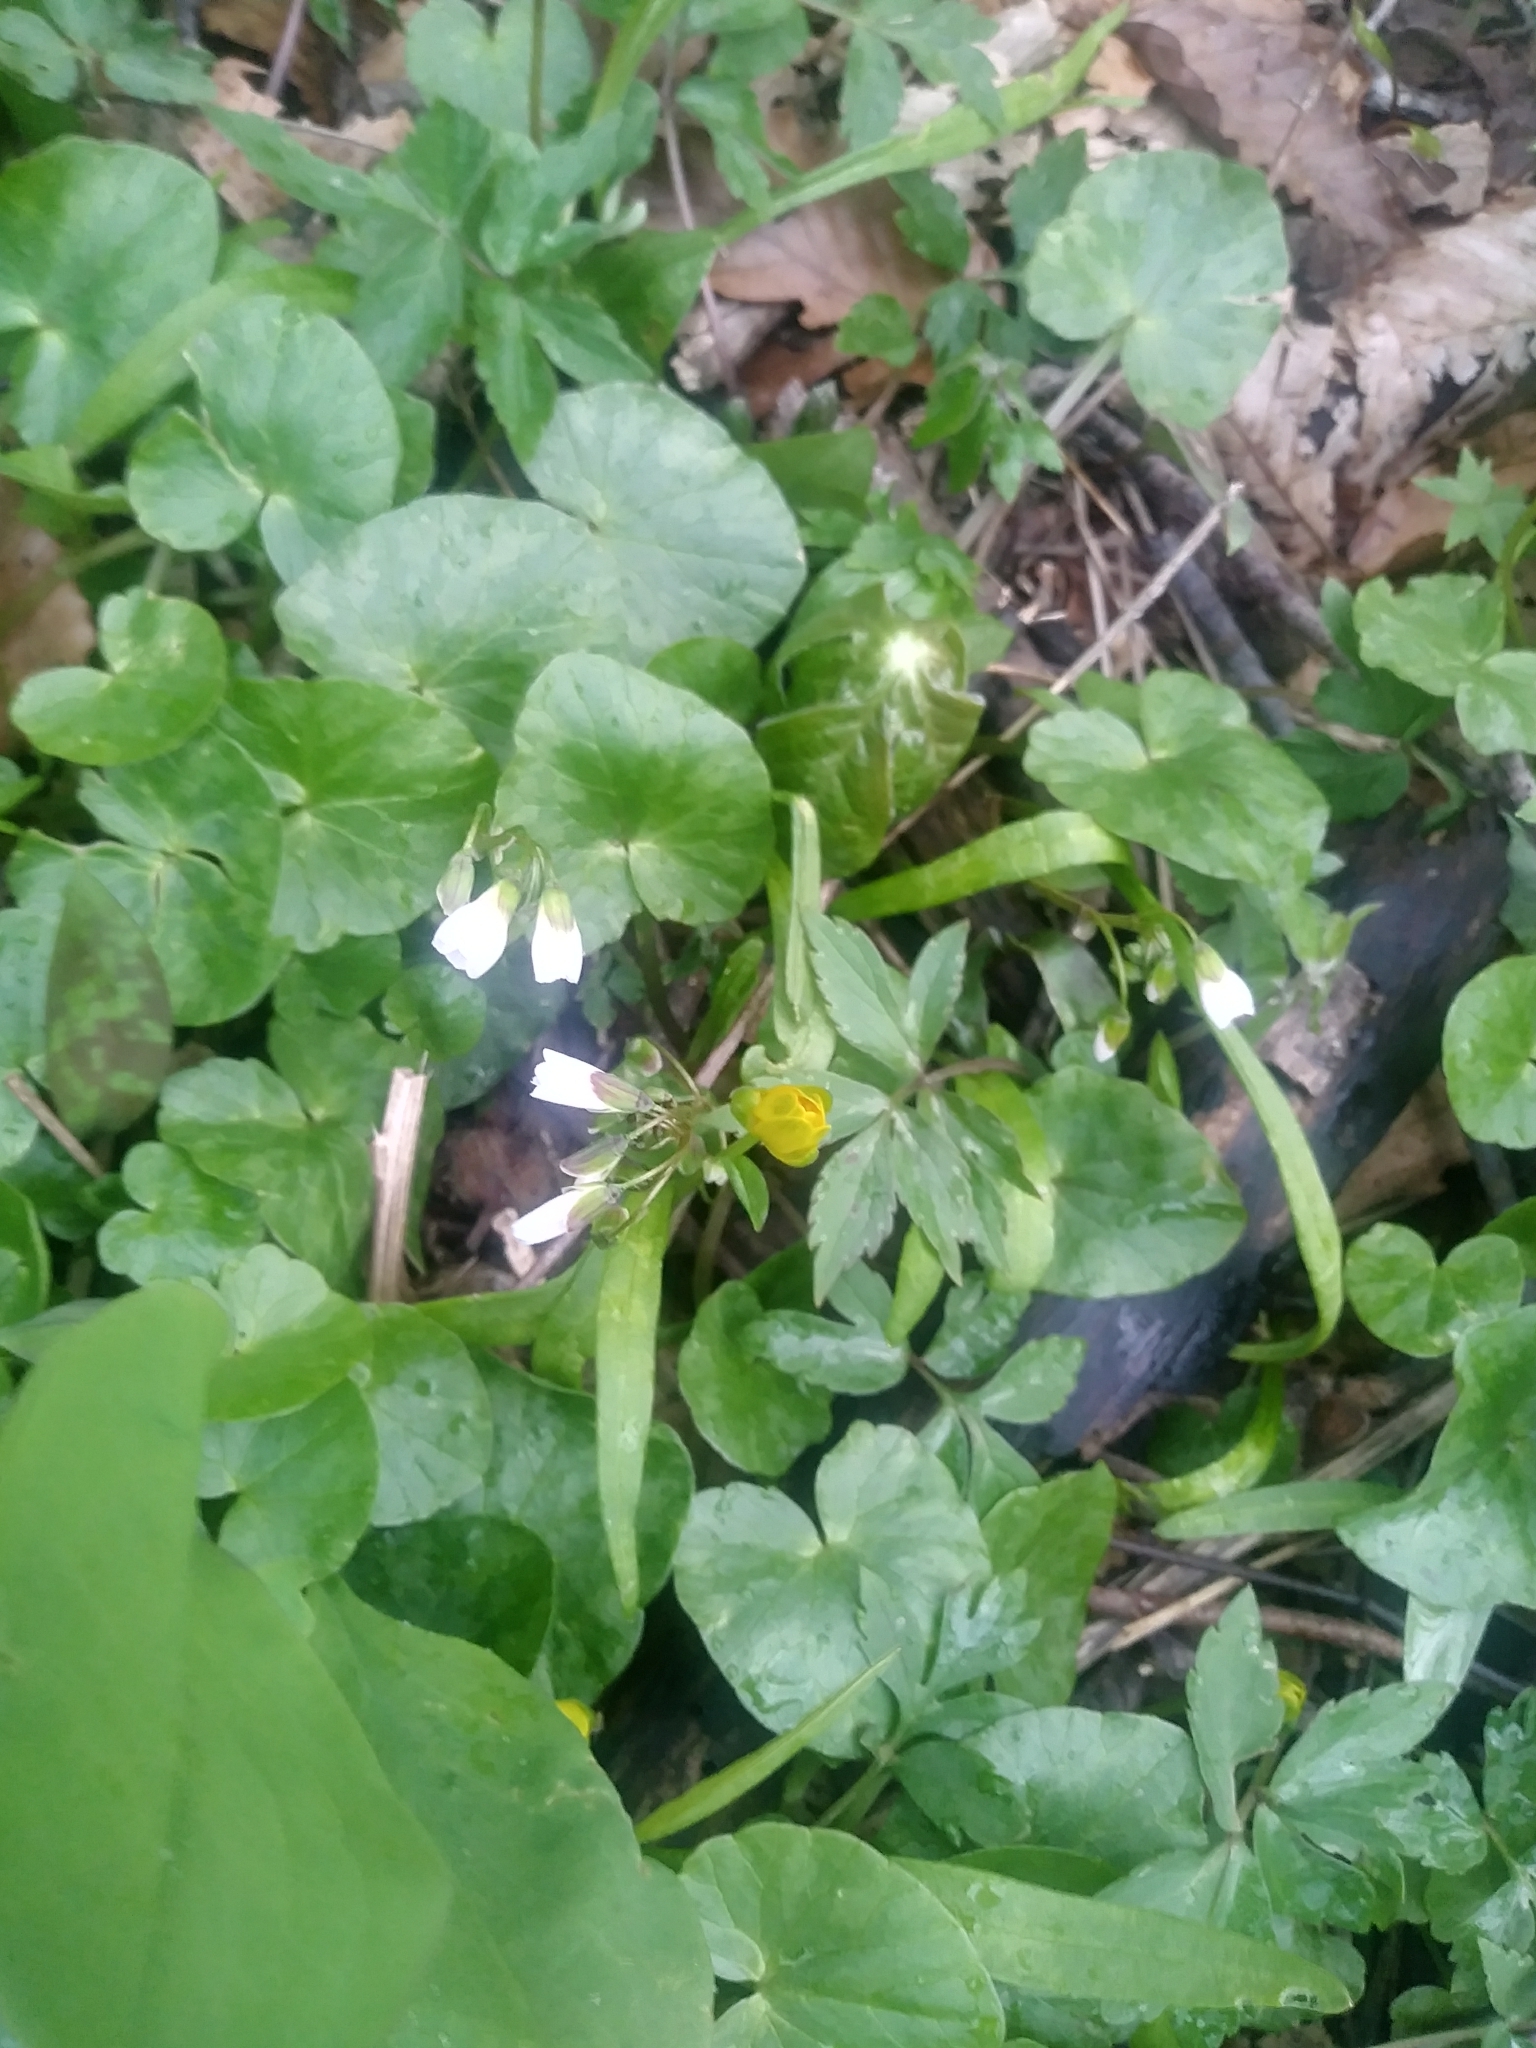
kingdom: Plantae
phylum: Tracheophyta
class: Magnoliopsida
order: Caryophyllales
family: Montiaceae
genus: Claytonia
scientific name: Claytonia virginica
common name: Virginia springbeauty
